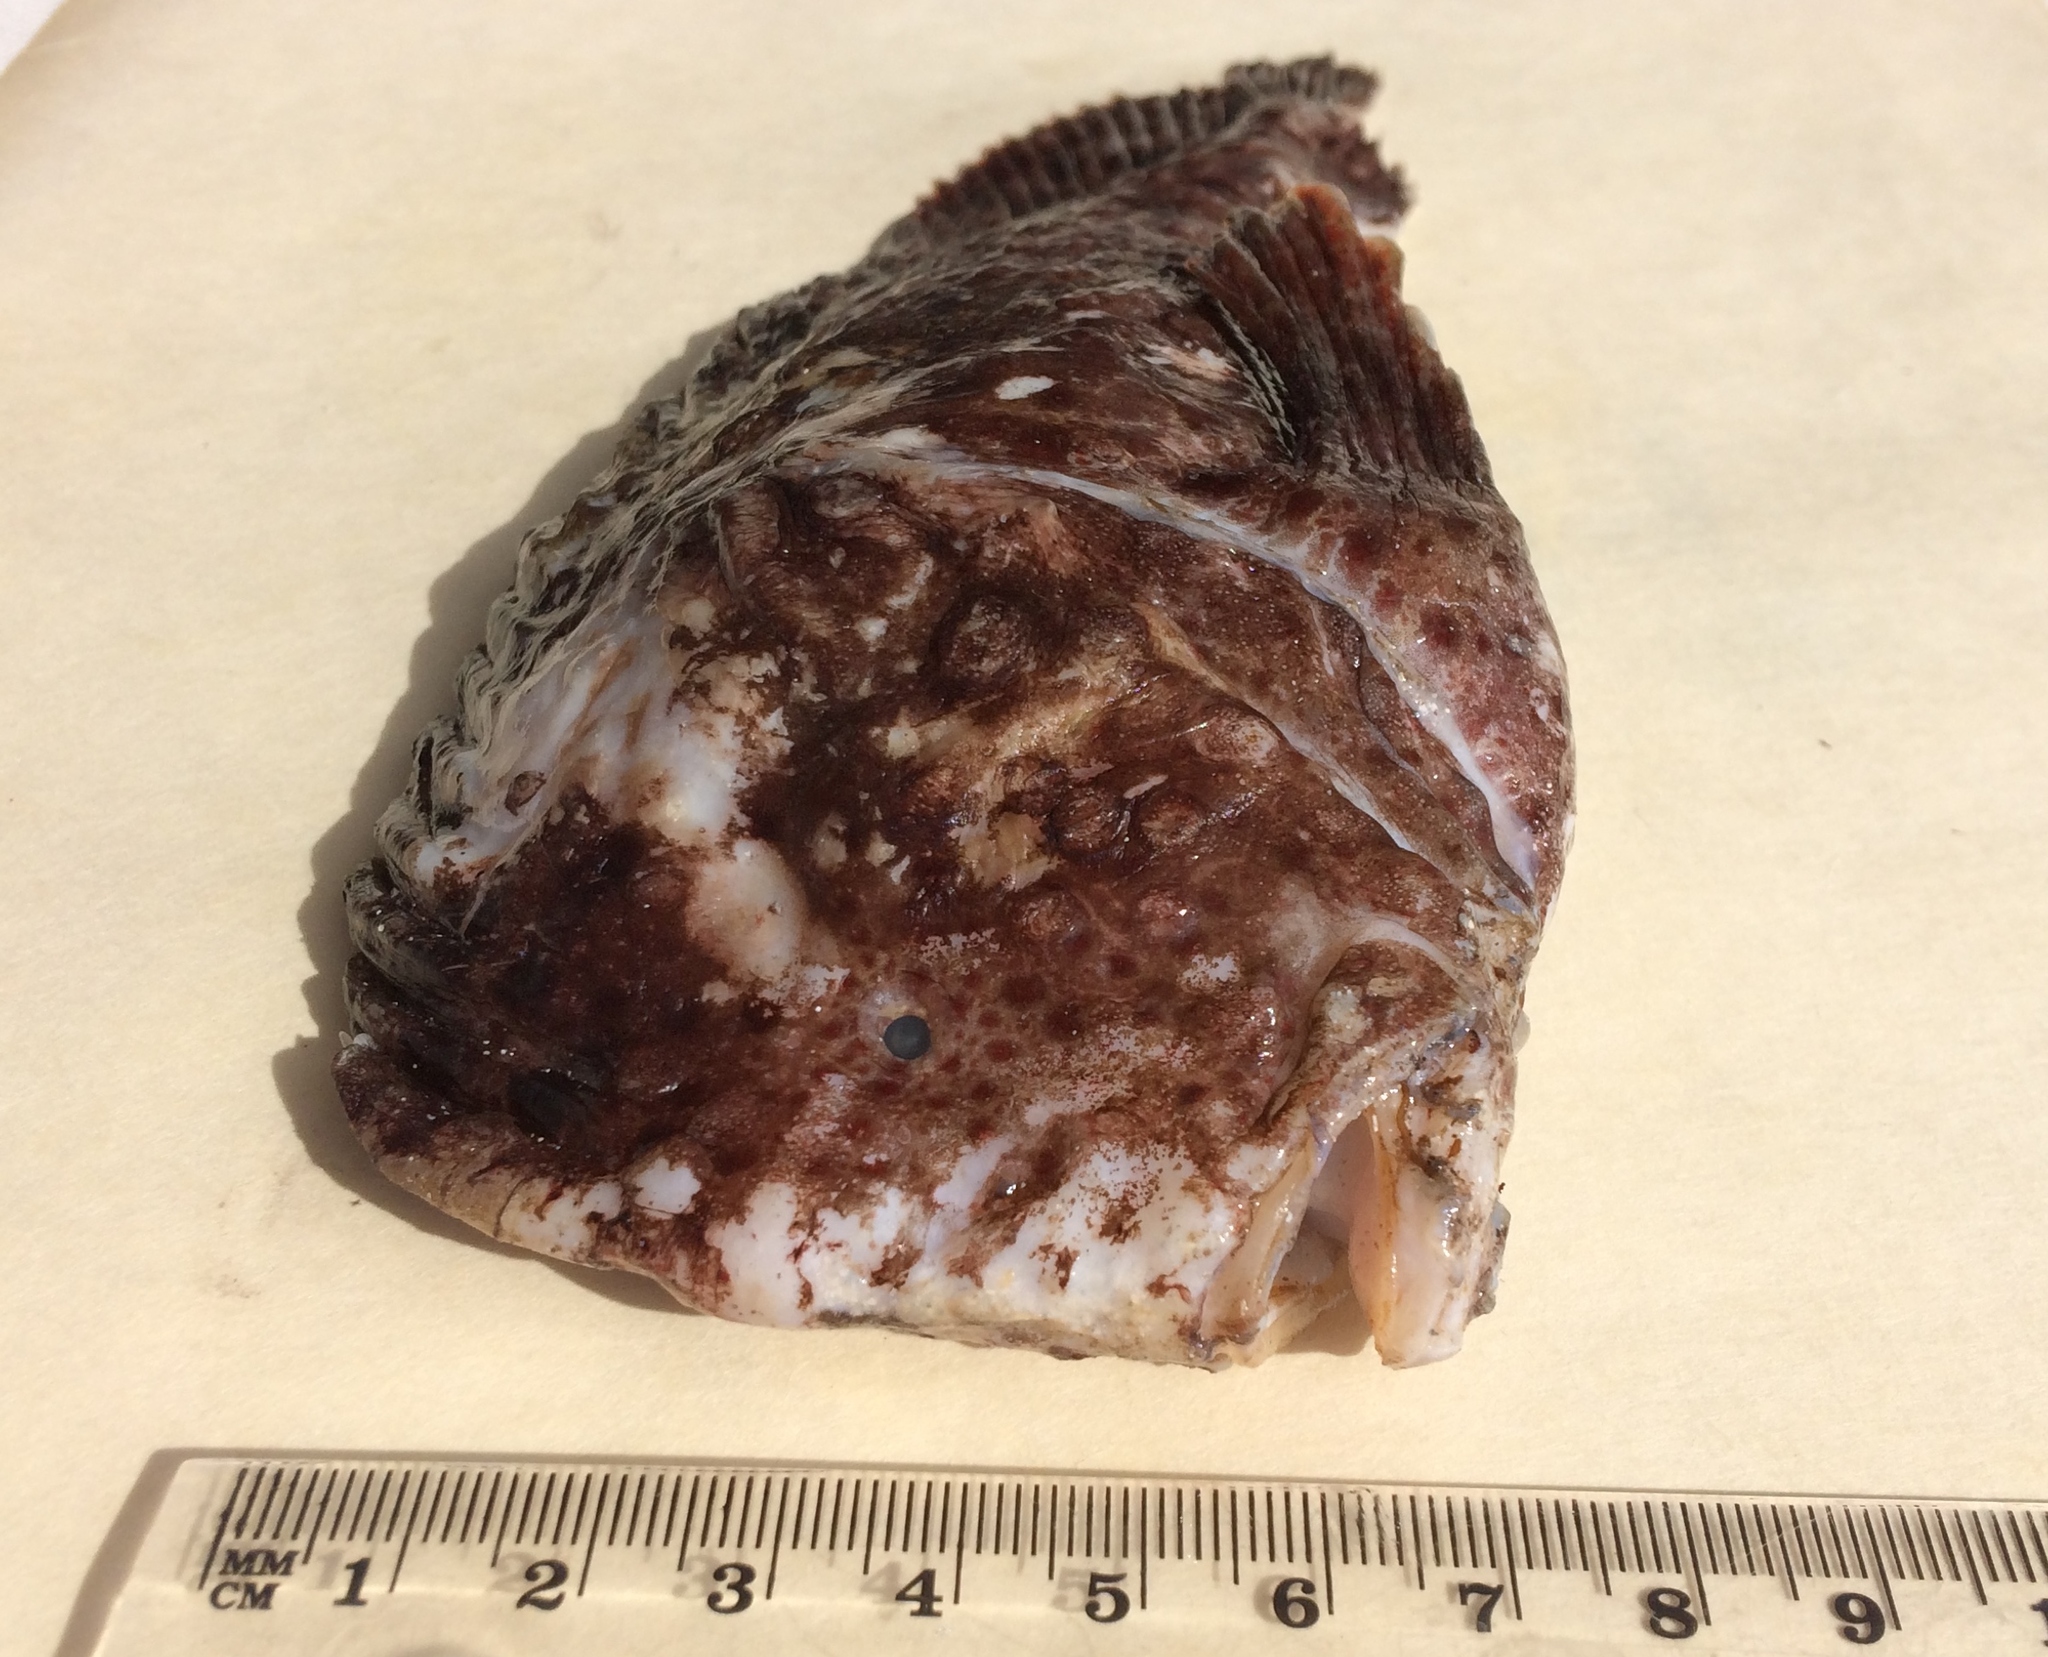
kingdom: Animalia
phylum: Chordata
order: Scorpaeniformes
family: Pataecidae
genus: Aetapcus
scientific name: Aetapcus maculatus
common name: Warty prowfish
